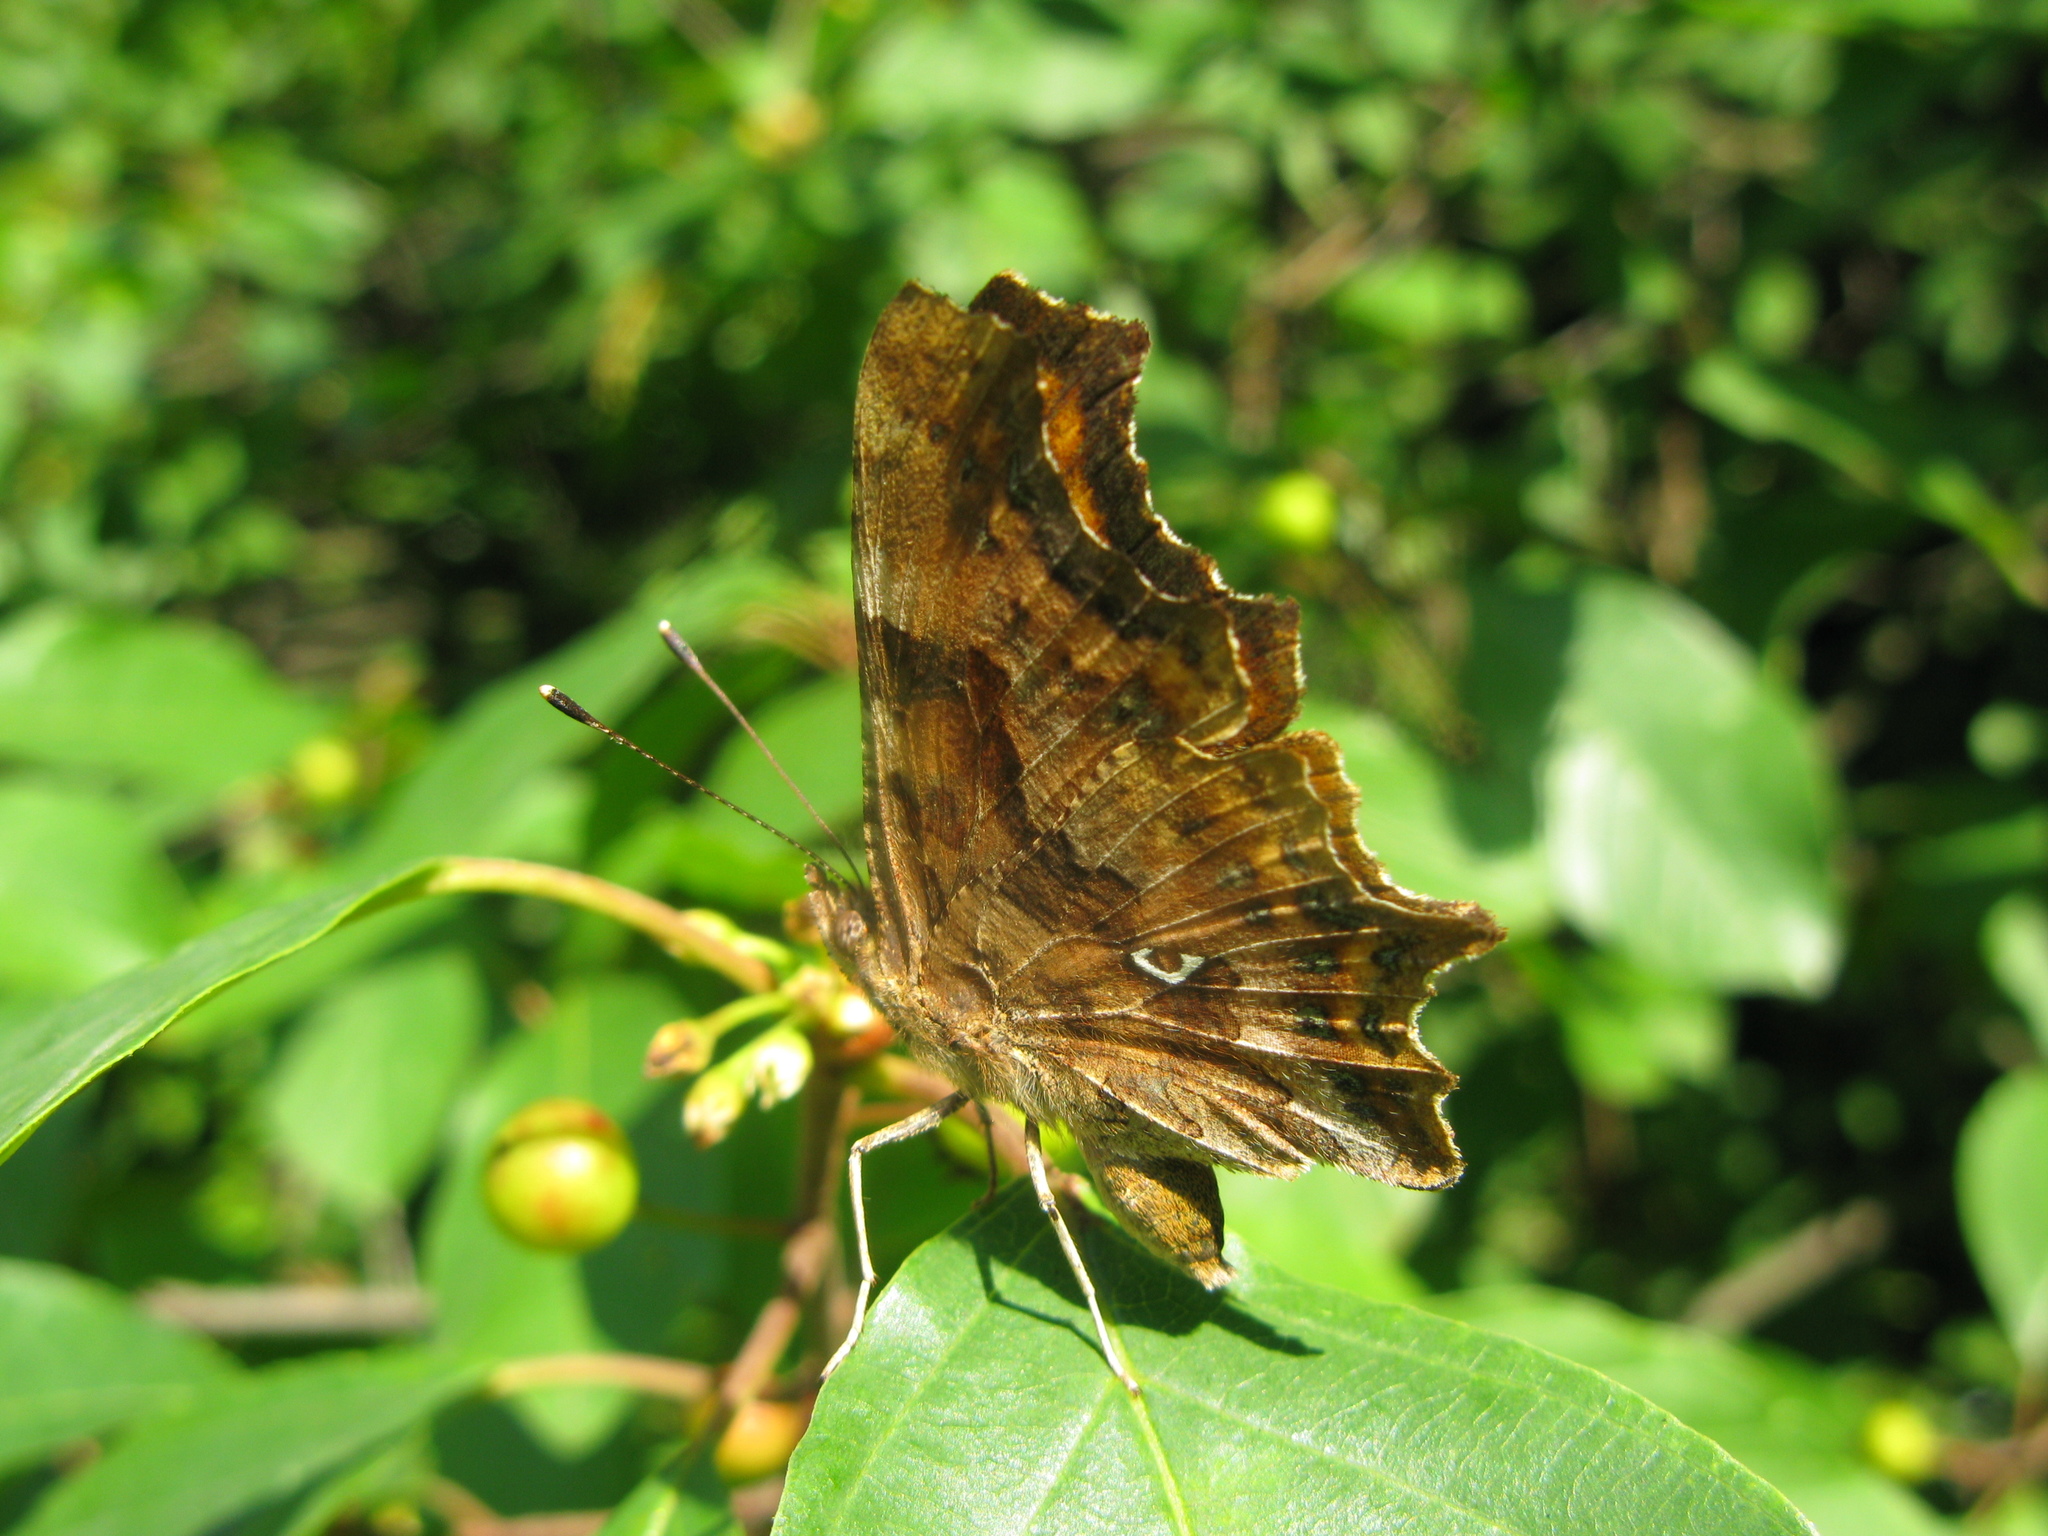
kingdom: Animalia
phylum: Arthropoda
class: Insecta
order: Lepidoptera
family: Nymphalidae
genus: Polygonia
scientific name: Polygonia c-album
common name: Comma
